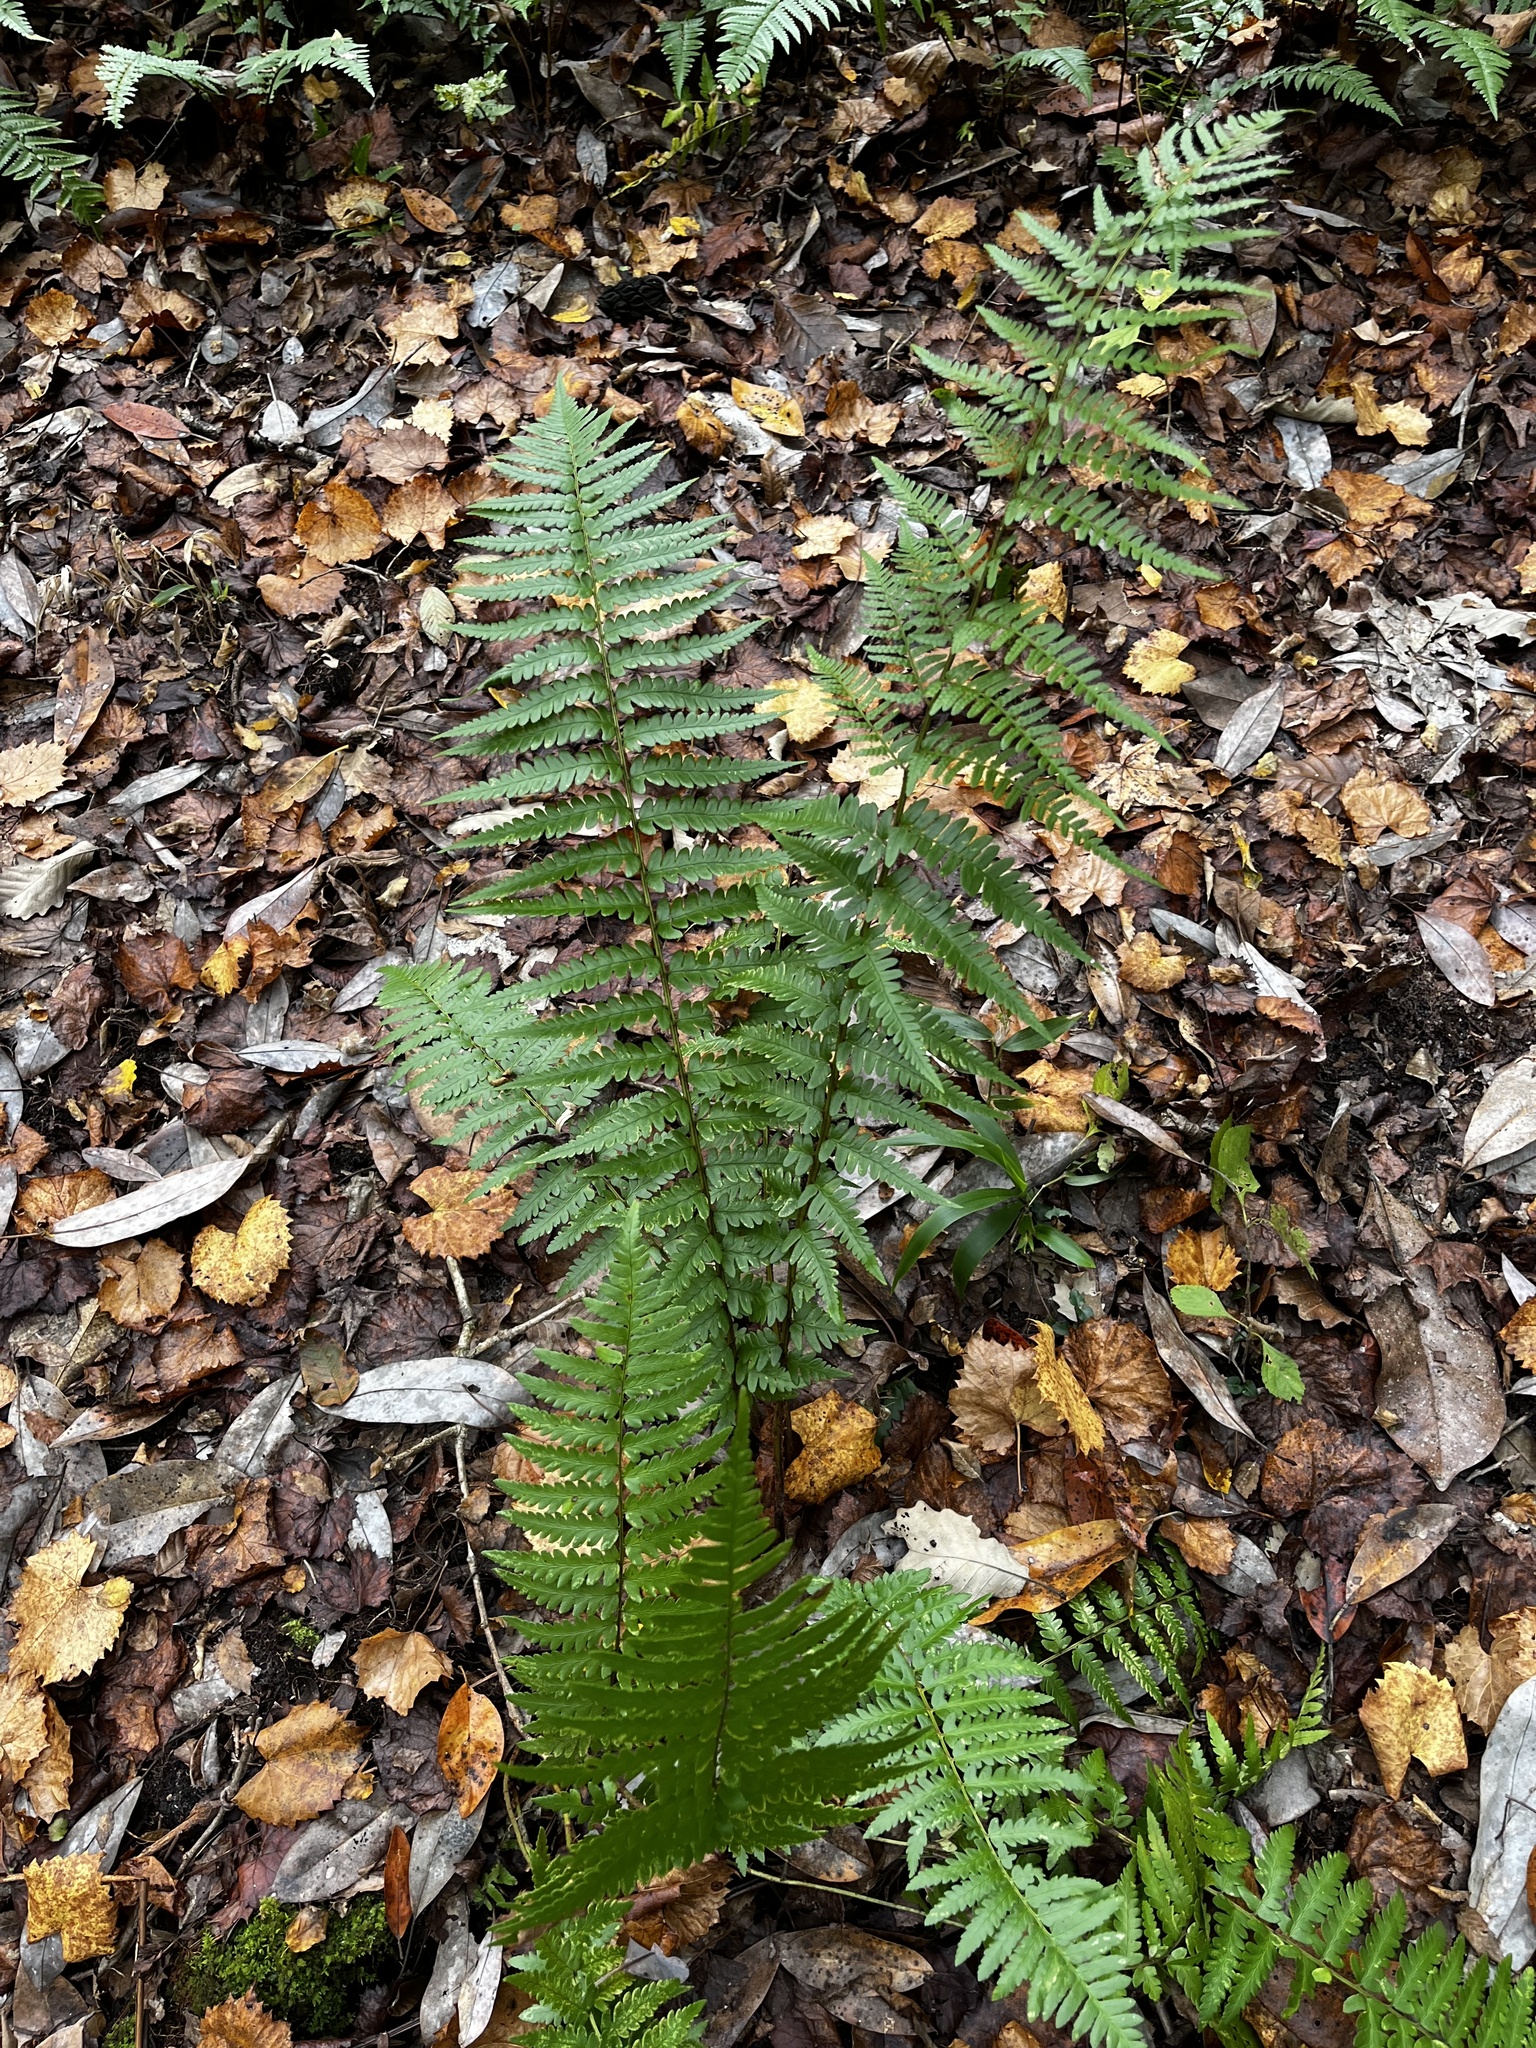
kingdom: Plantae
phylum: Tracheophyta
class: Polypodiopsida
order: Polypodiales
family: Dryopteridaceae
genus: Dryopteris
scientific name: Dryopteris ludoviciana
